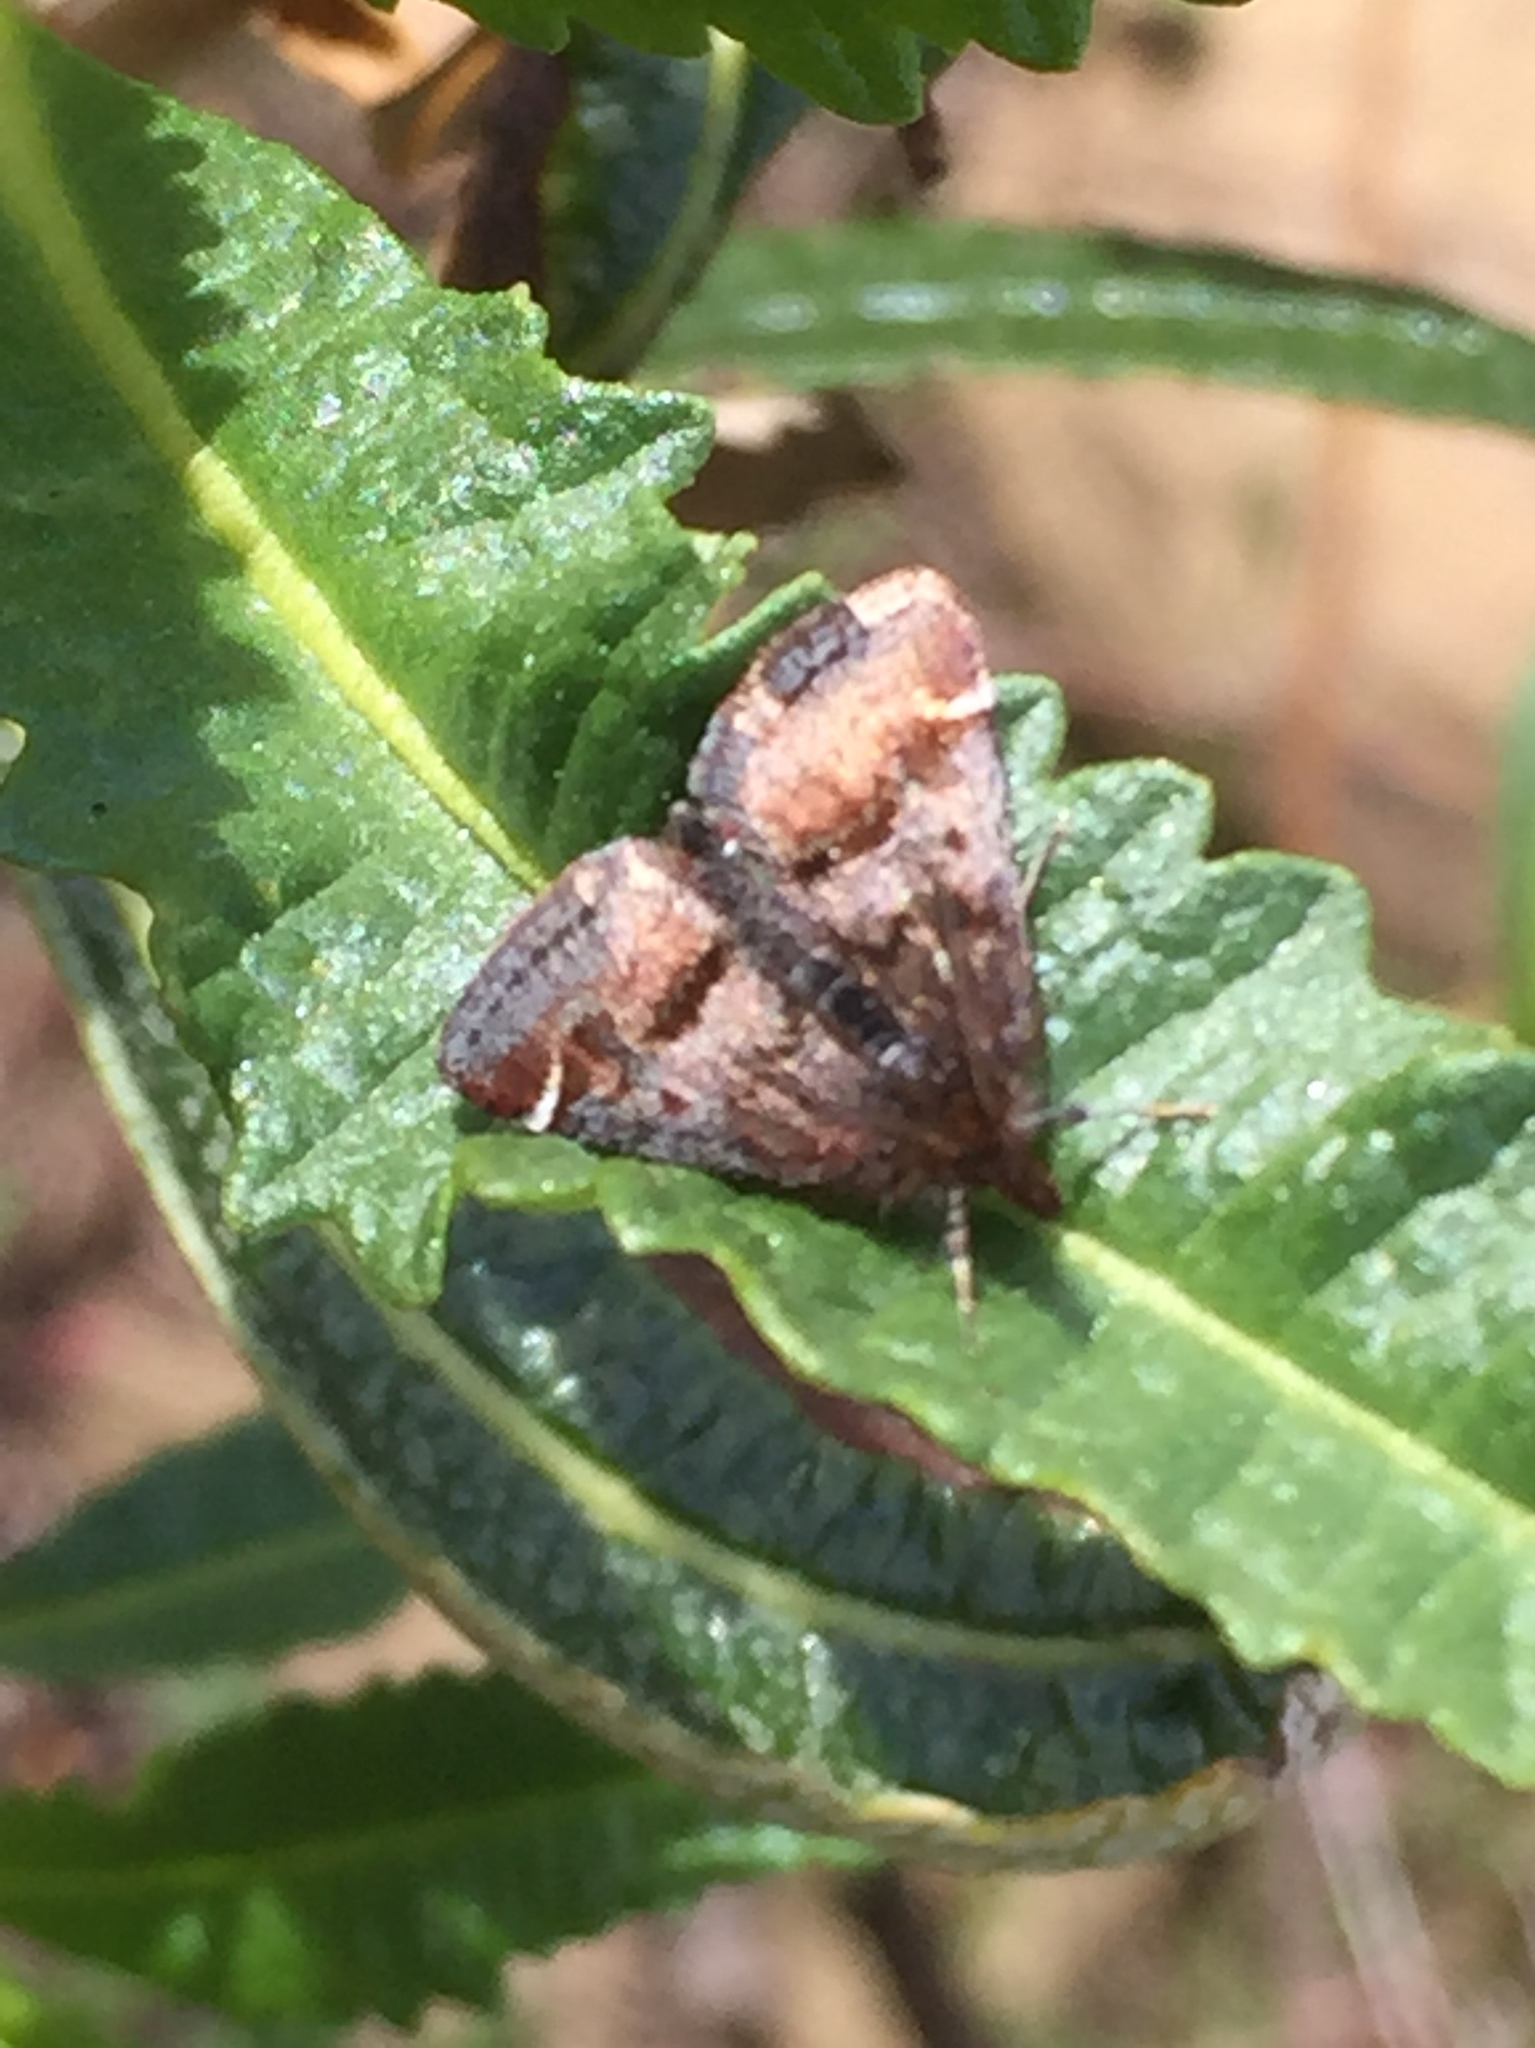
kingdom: Animalia
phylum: Arthropoda
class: Insecta
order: Lepidoptera
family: Crambidae
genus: Pyrausta
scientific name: Pyrausta dapalis
